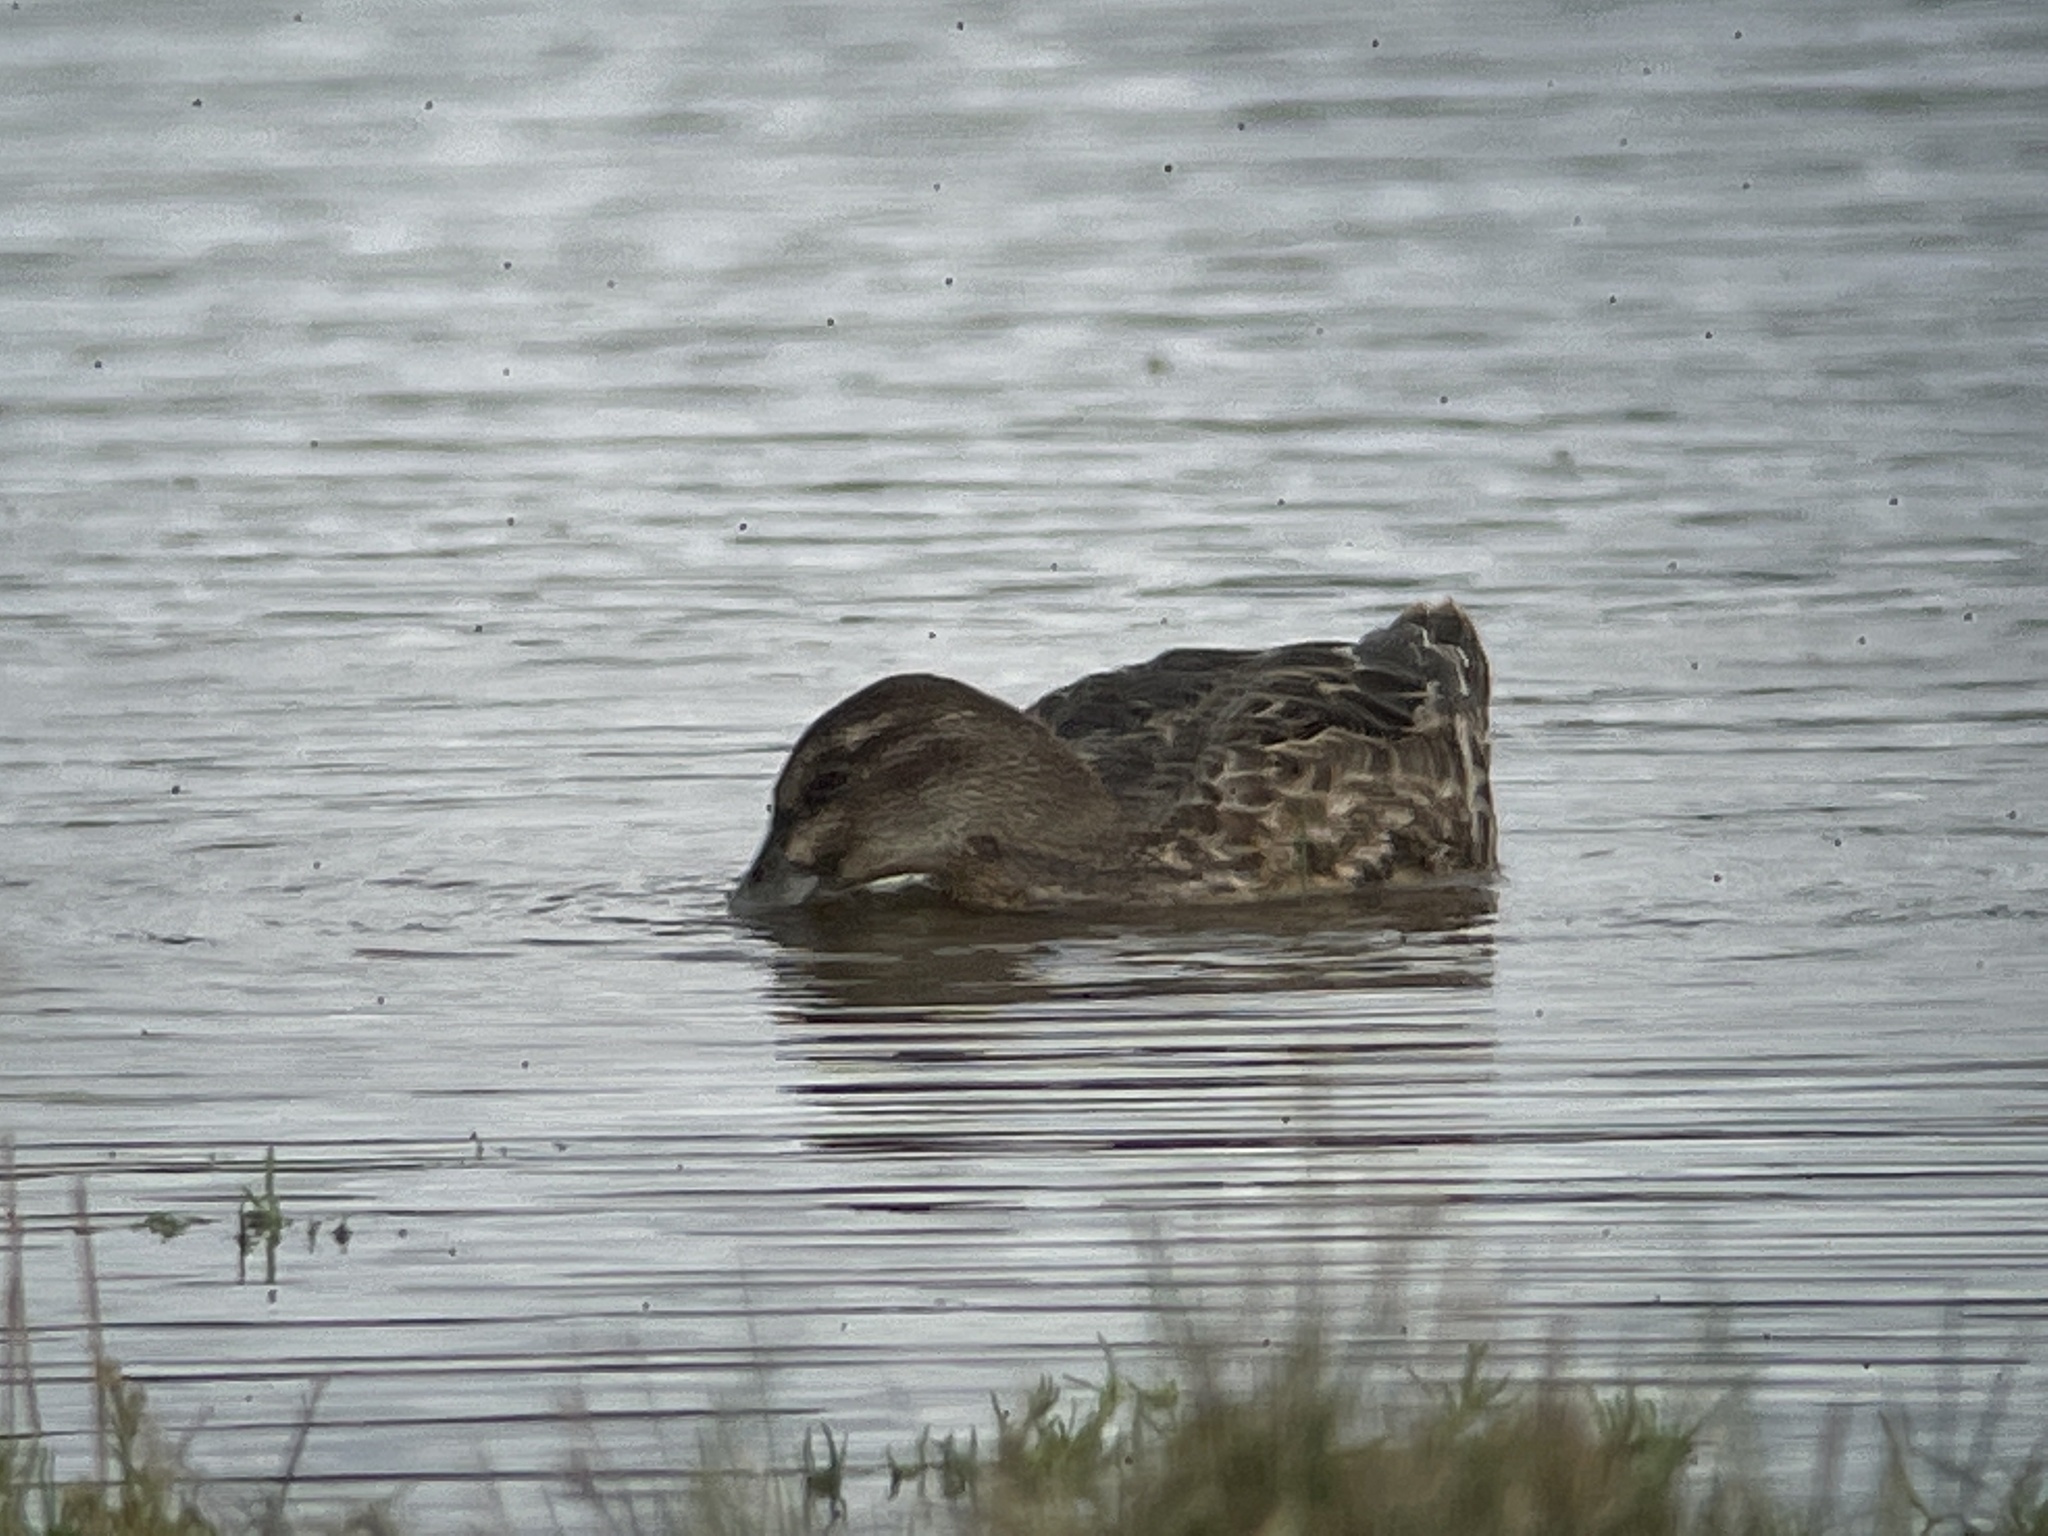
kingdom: Animalia
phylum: Chordata
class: Aves
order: Anseriformes
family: Anatidae
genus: Spatula
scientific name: Spatula querquedula
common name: Garganey
